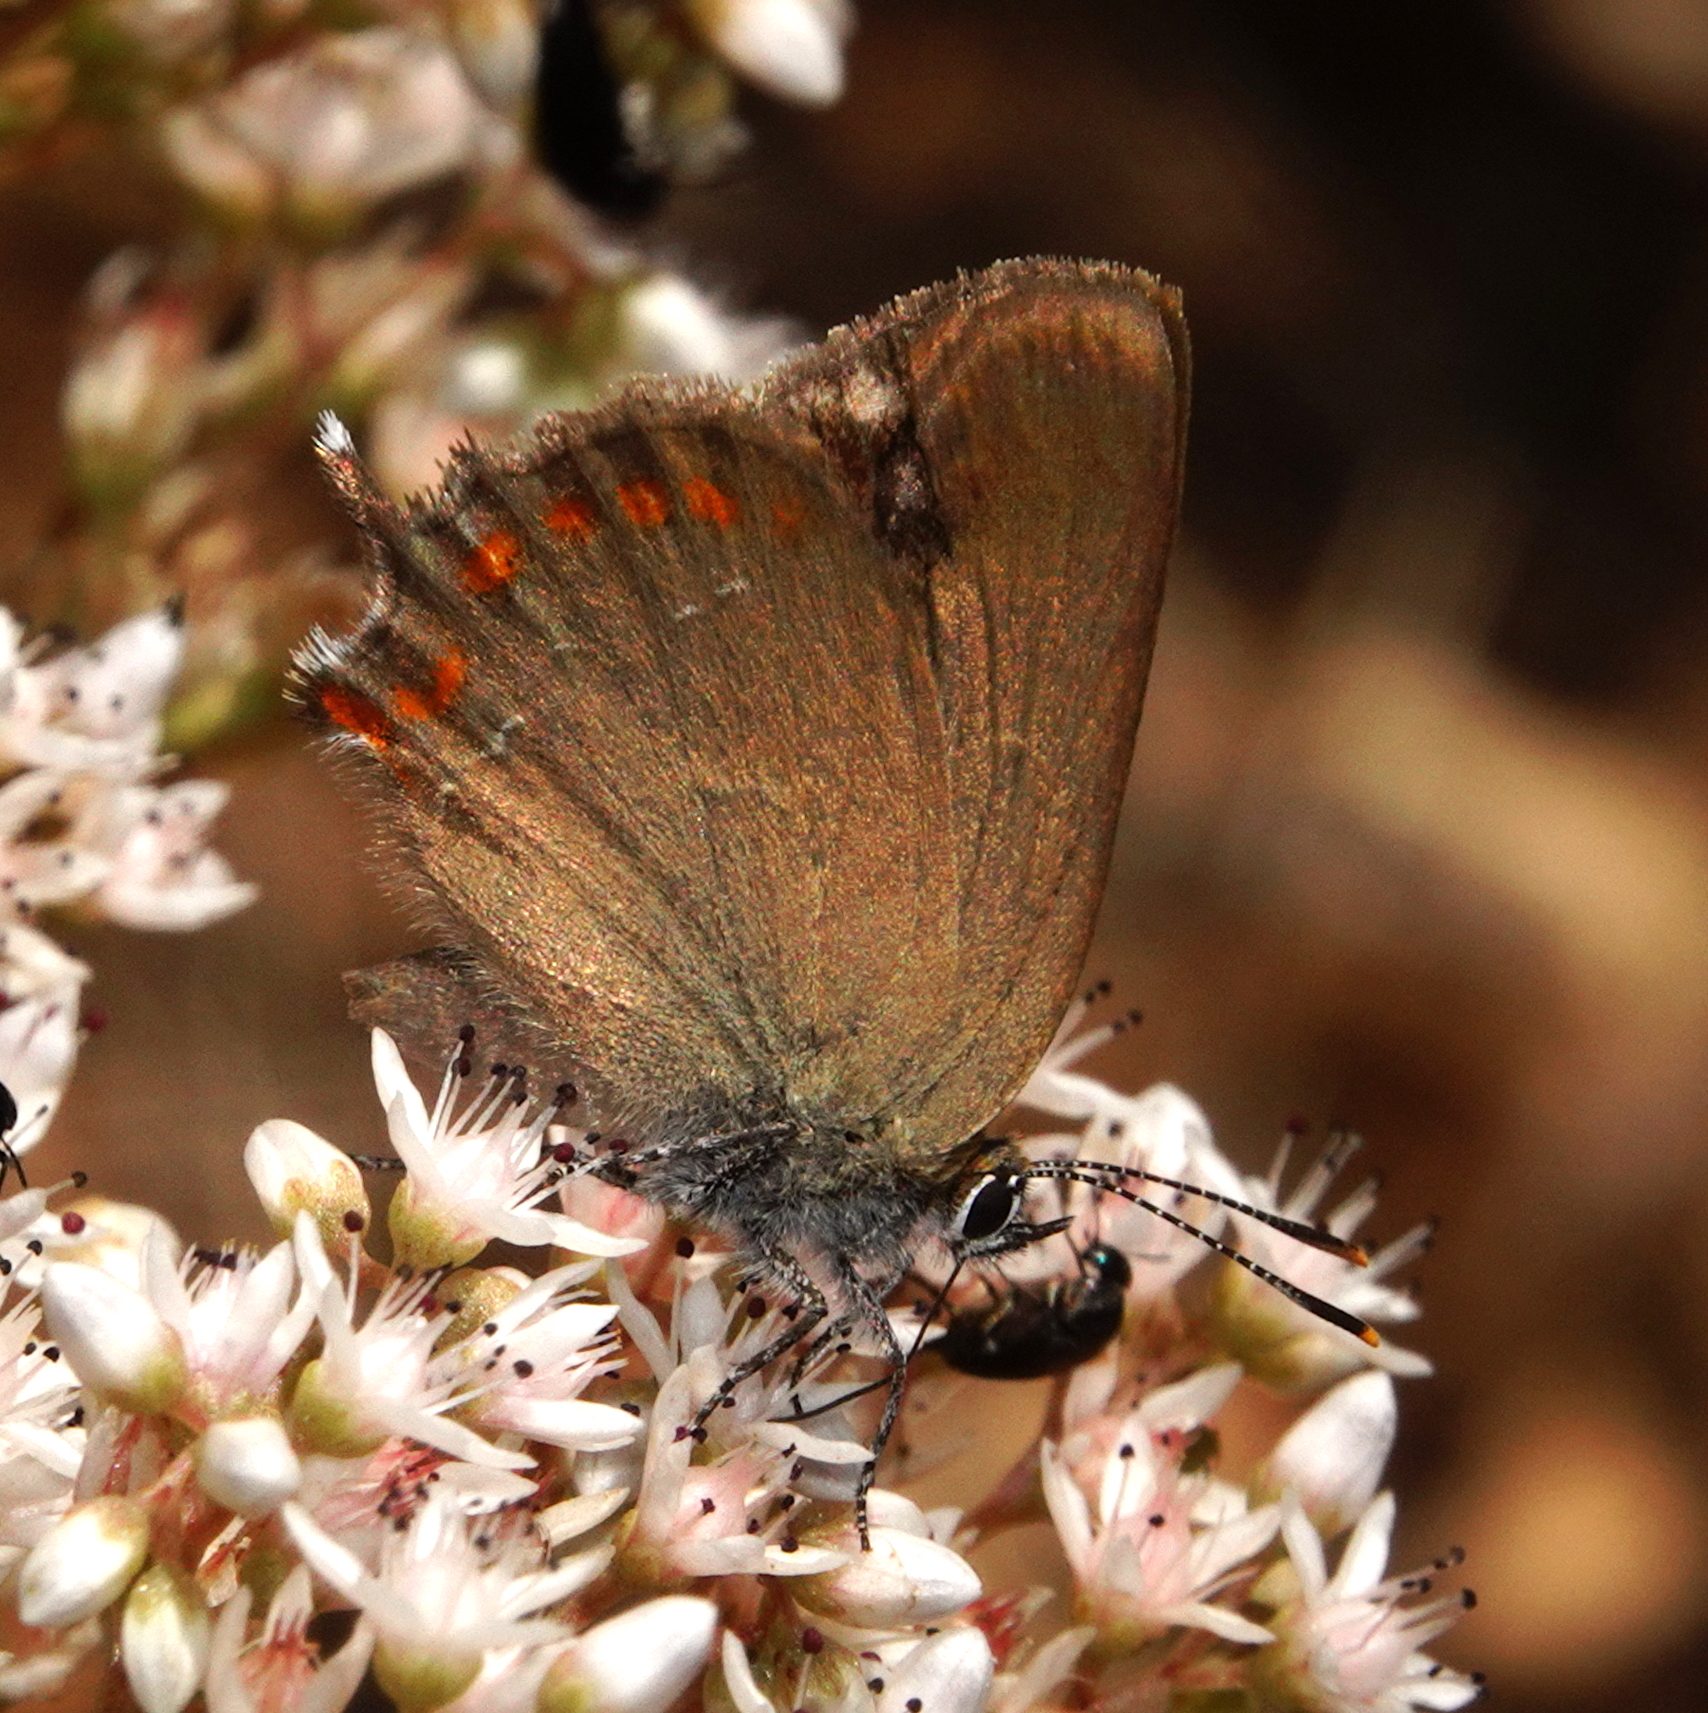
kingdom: Animalia
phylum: Arthropoda
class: Insecta
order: Lepidoptera
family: Lycaenidae
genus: Fixsenia
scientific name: Fixsenia esculi
